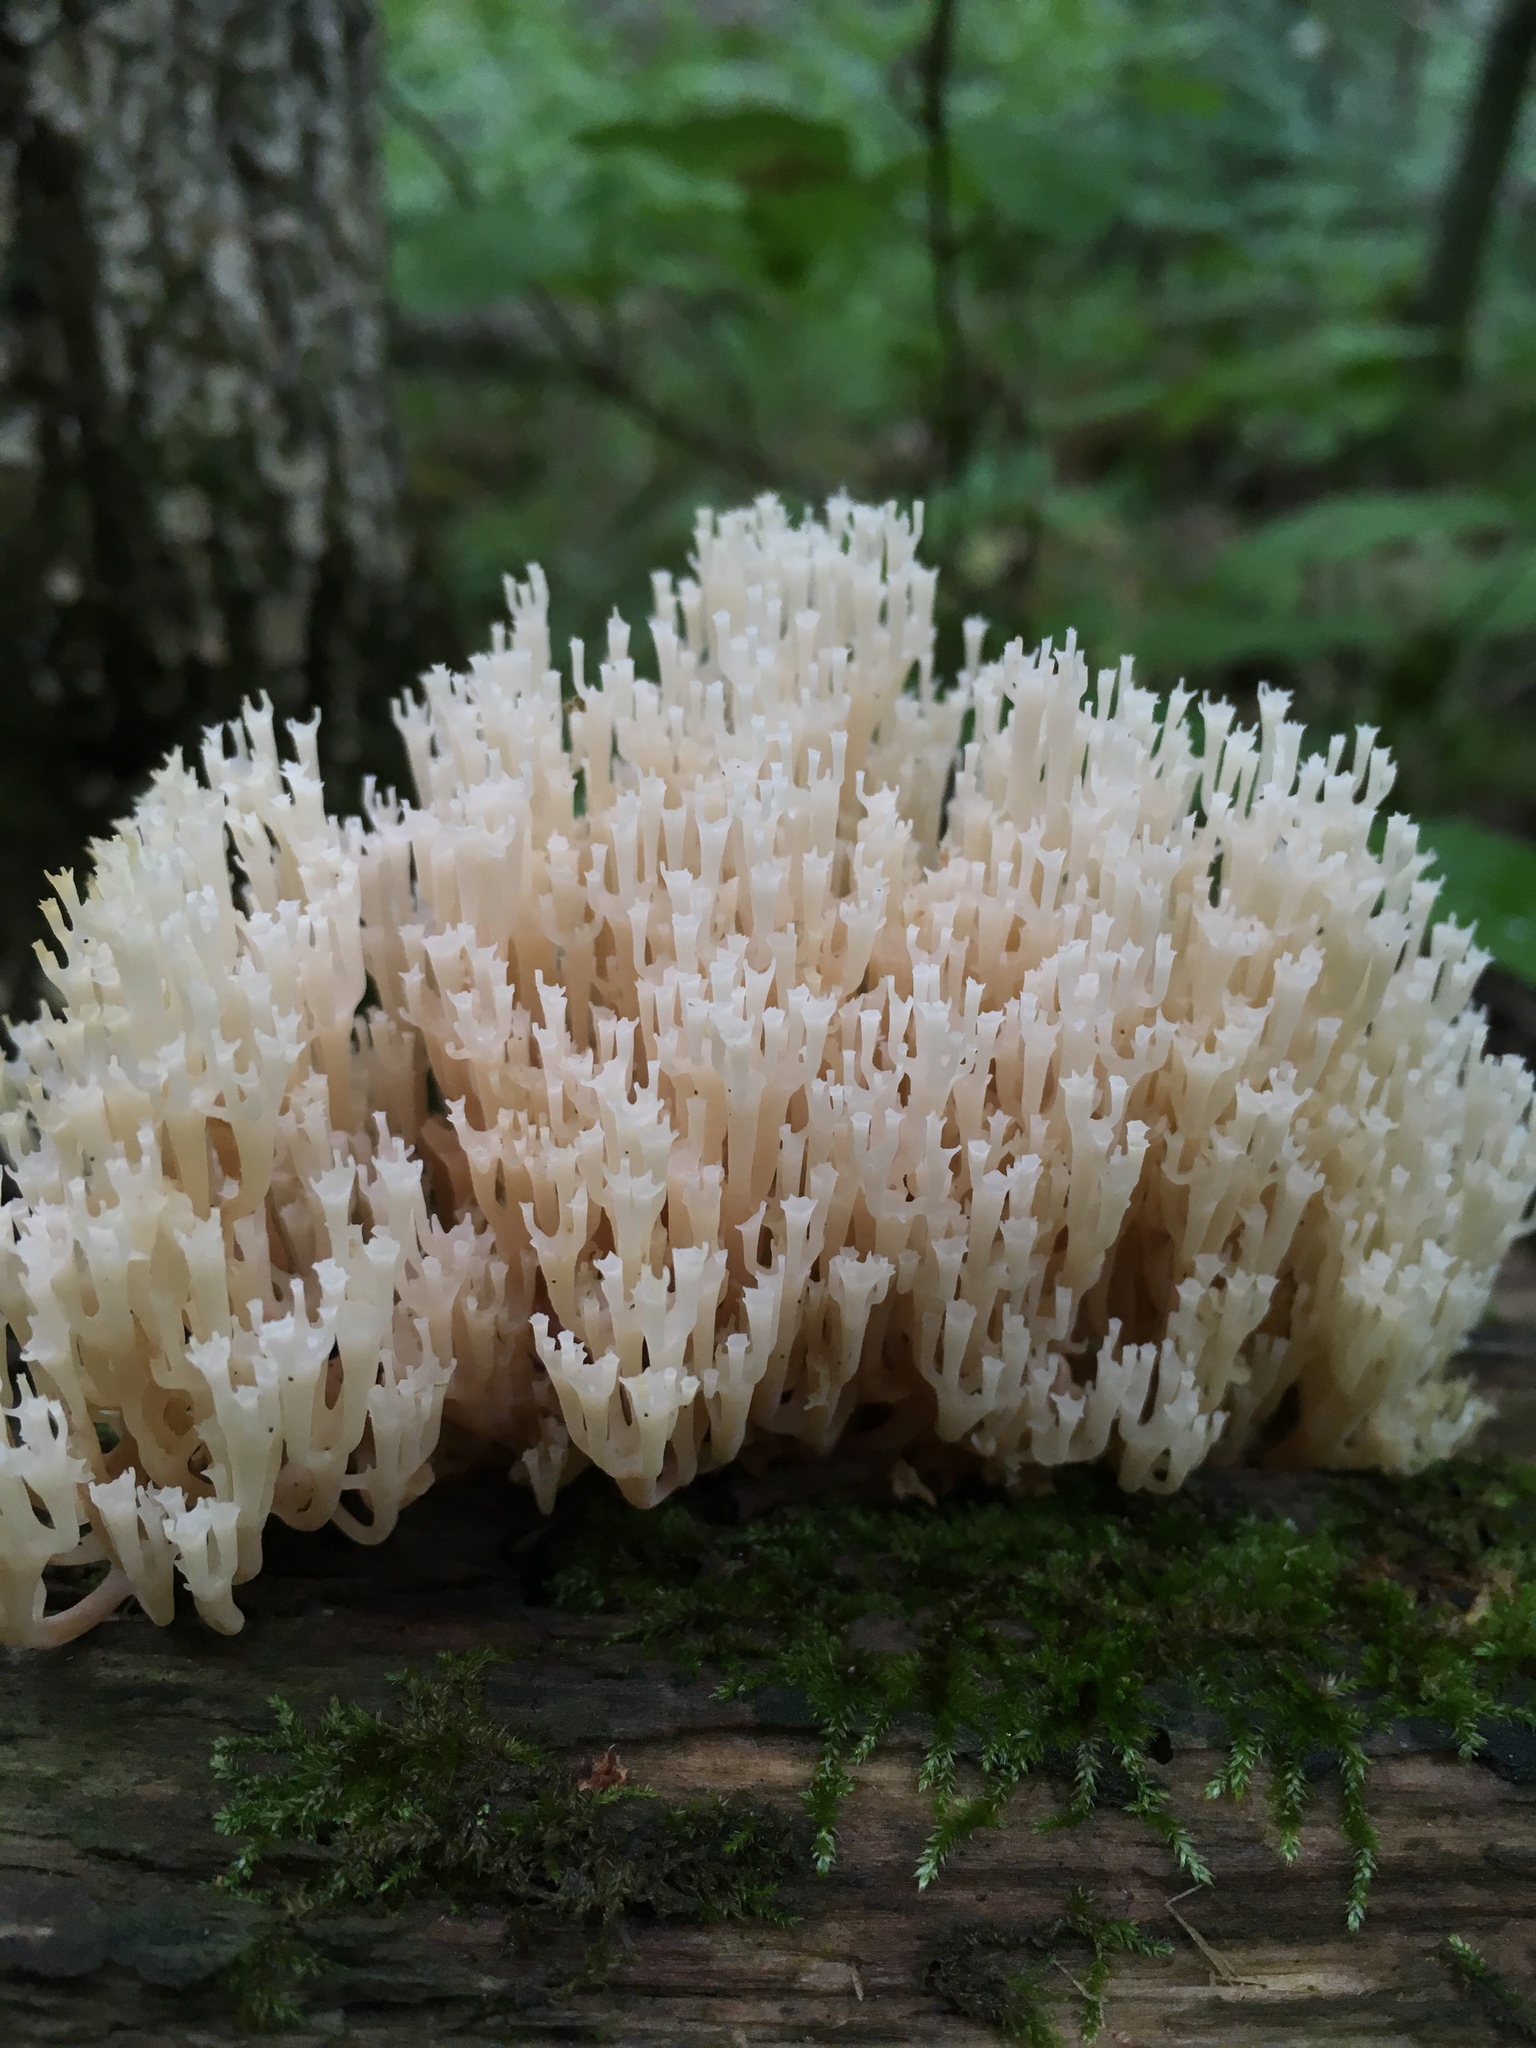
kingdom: Fungi
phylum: Basidiomycota
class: Agaricomycetes
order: Russulales
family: Auriscalpiaceae
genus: Artomyces
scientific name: Artomyces pyxidatus
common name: Crown-tipped coral fungus
